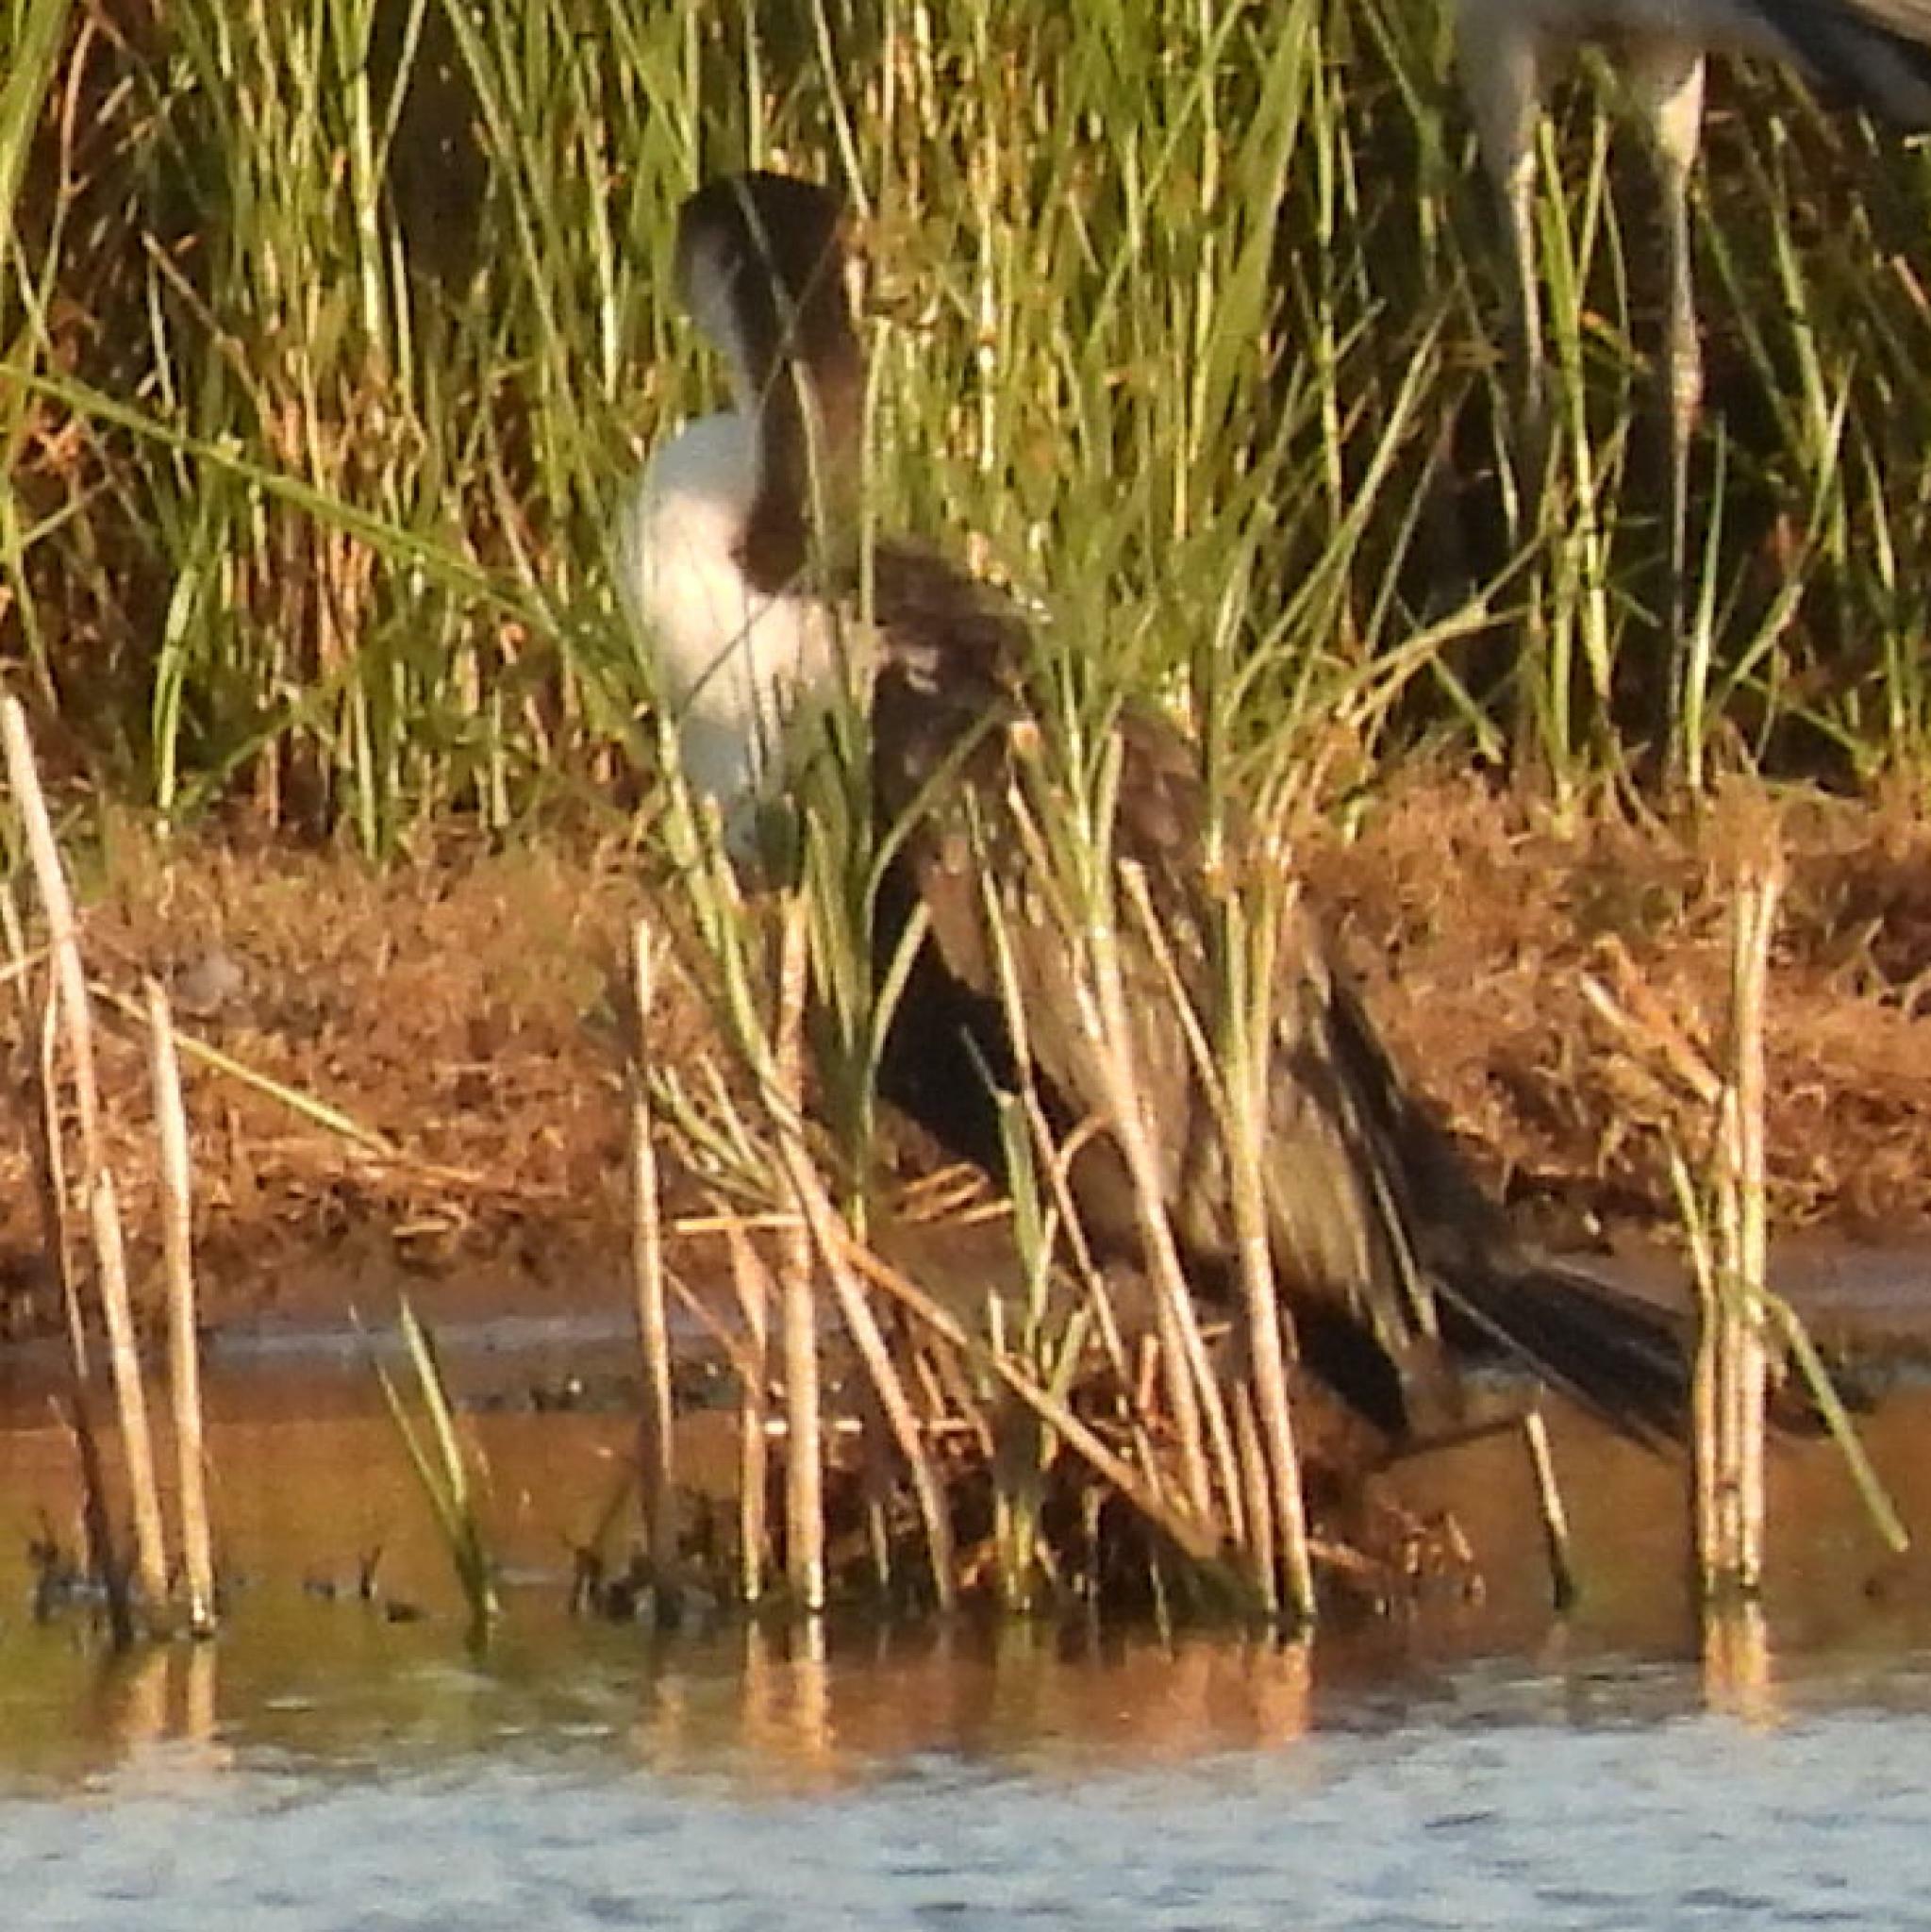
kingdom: Animalia
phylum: Chordata
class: Aves
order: Suliformes
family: Phalacrocoracidae
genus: Phalacrocorax
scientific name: Phalacrocorax carbo
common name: Great cormorant
